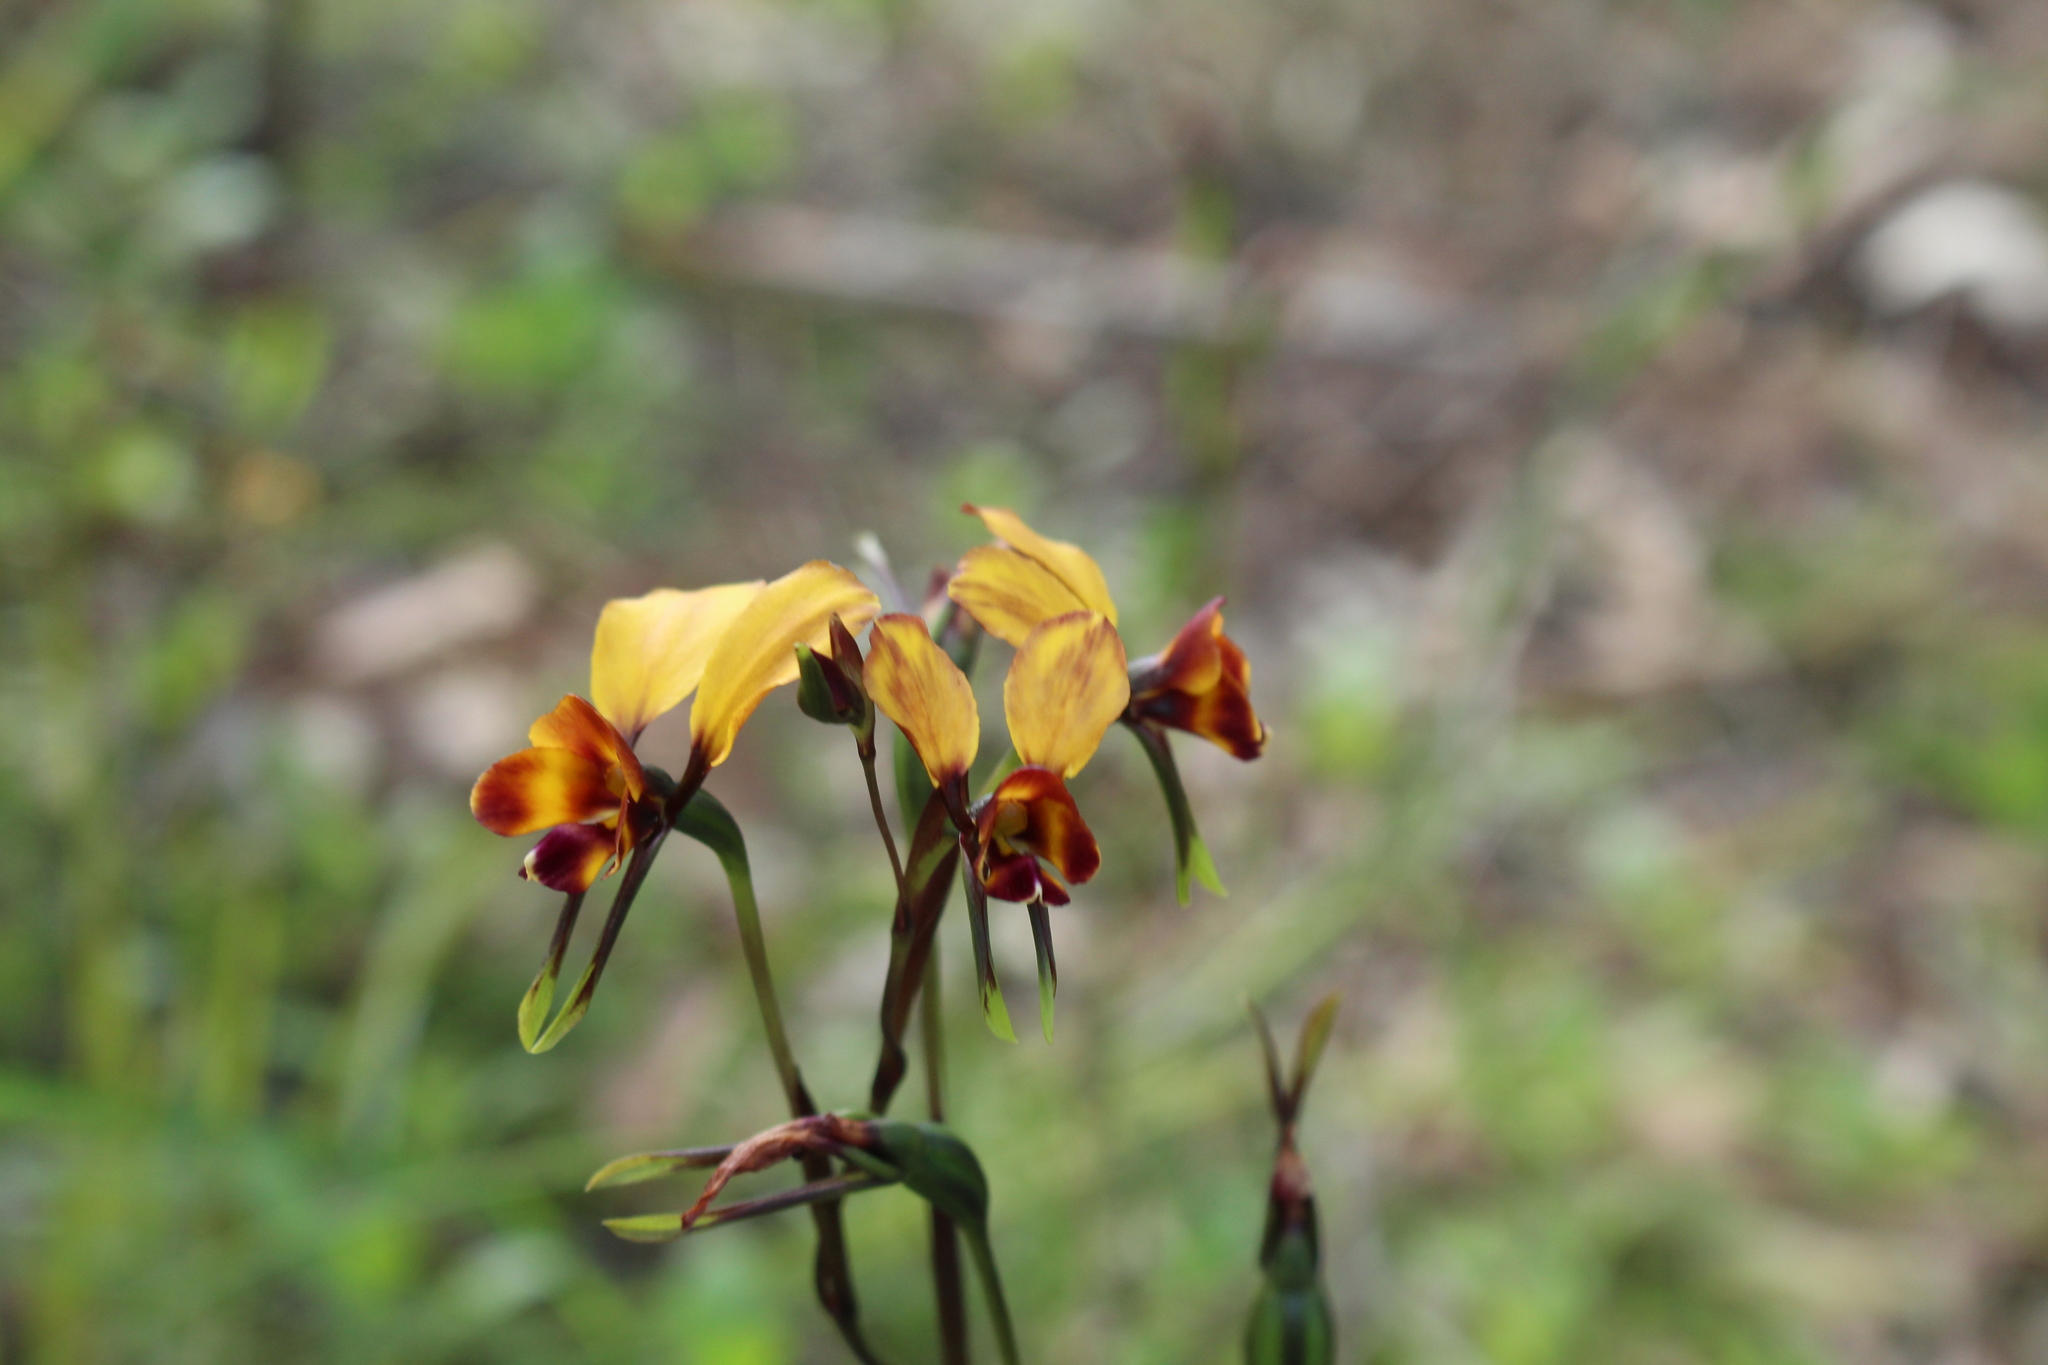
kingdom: Plantae
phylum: Tracheophyta
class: Liliopsida
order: Asparagales
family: Orchidaceae
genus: Diuris
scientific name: Diuris corymbosa
